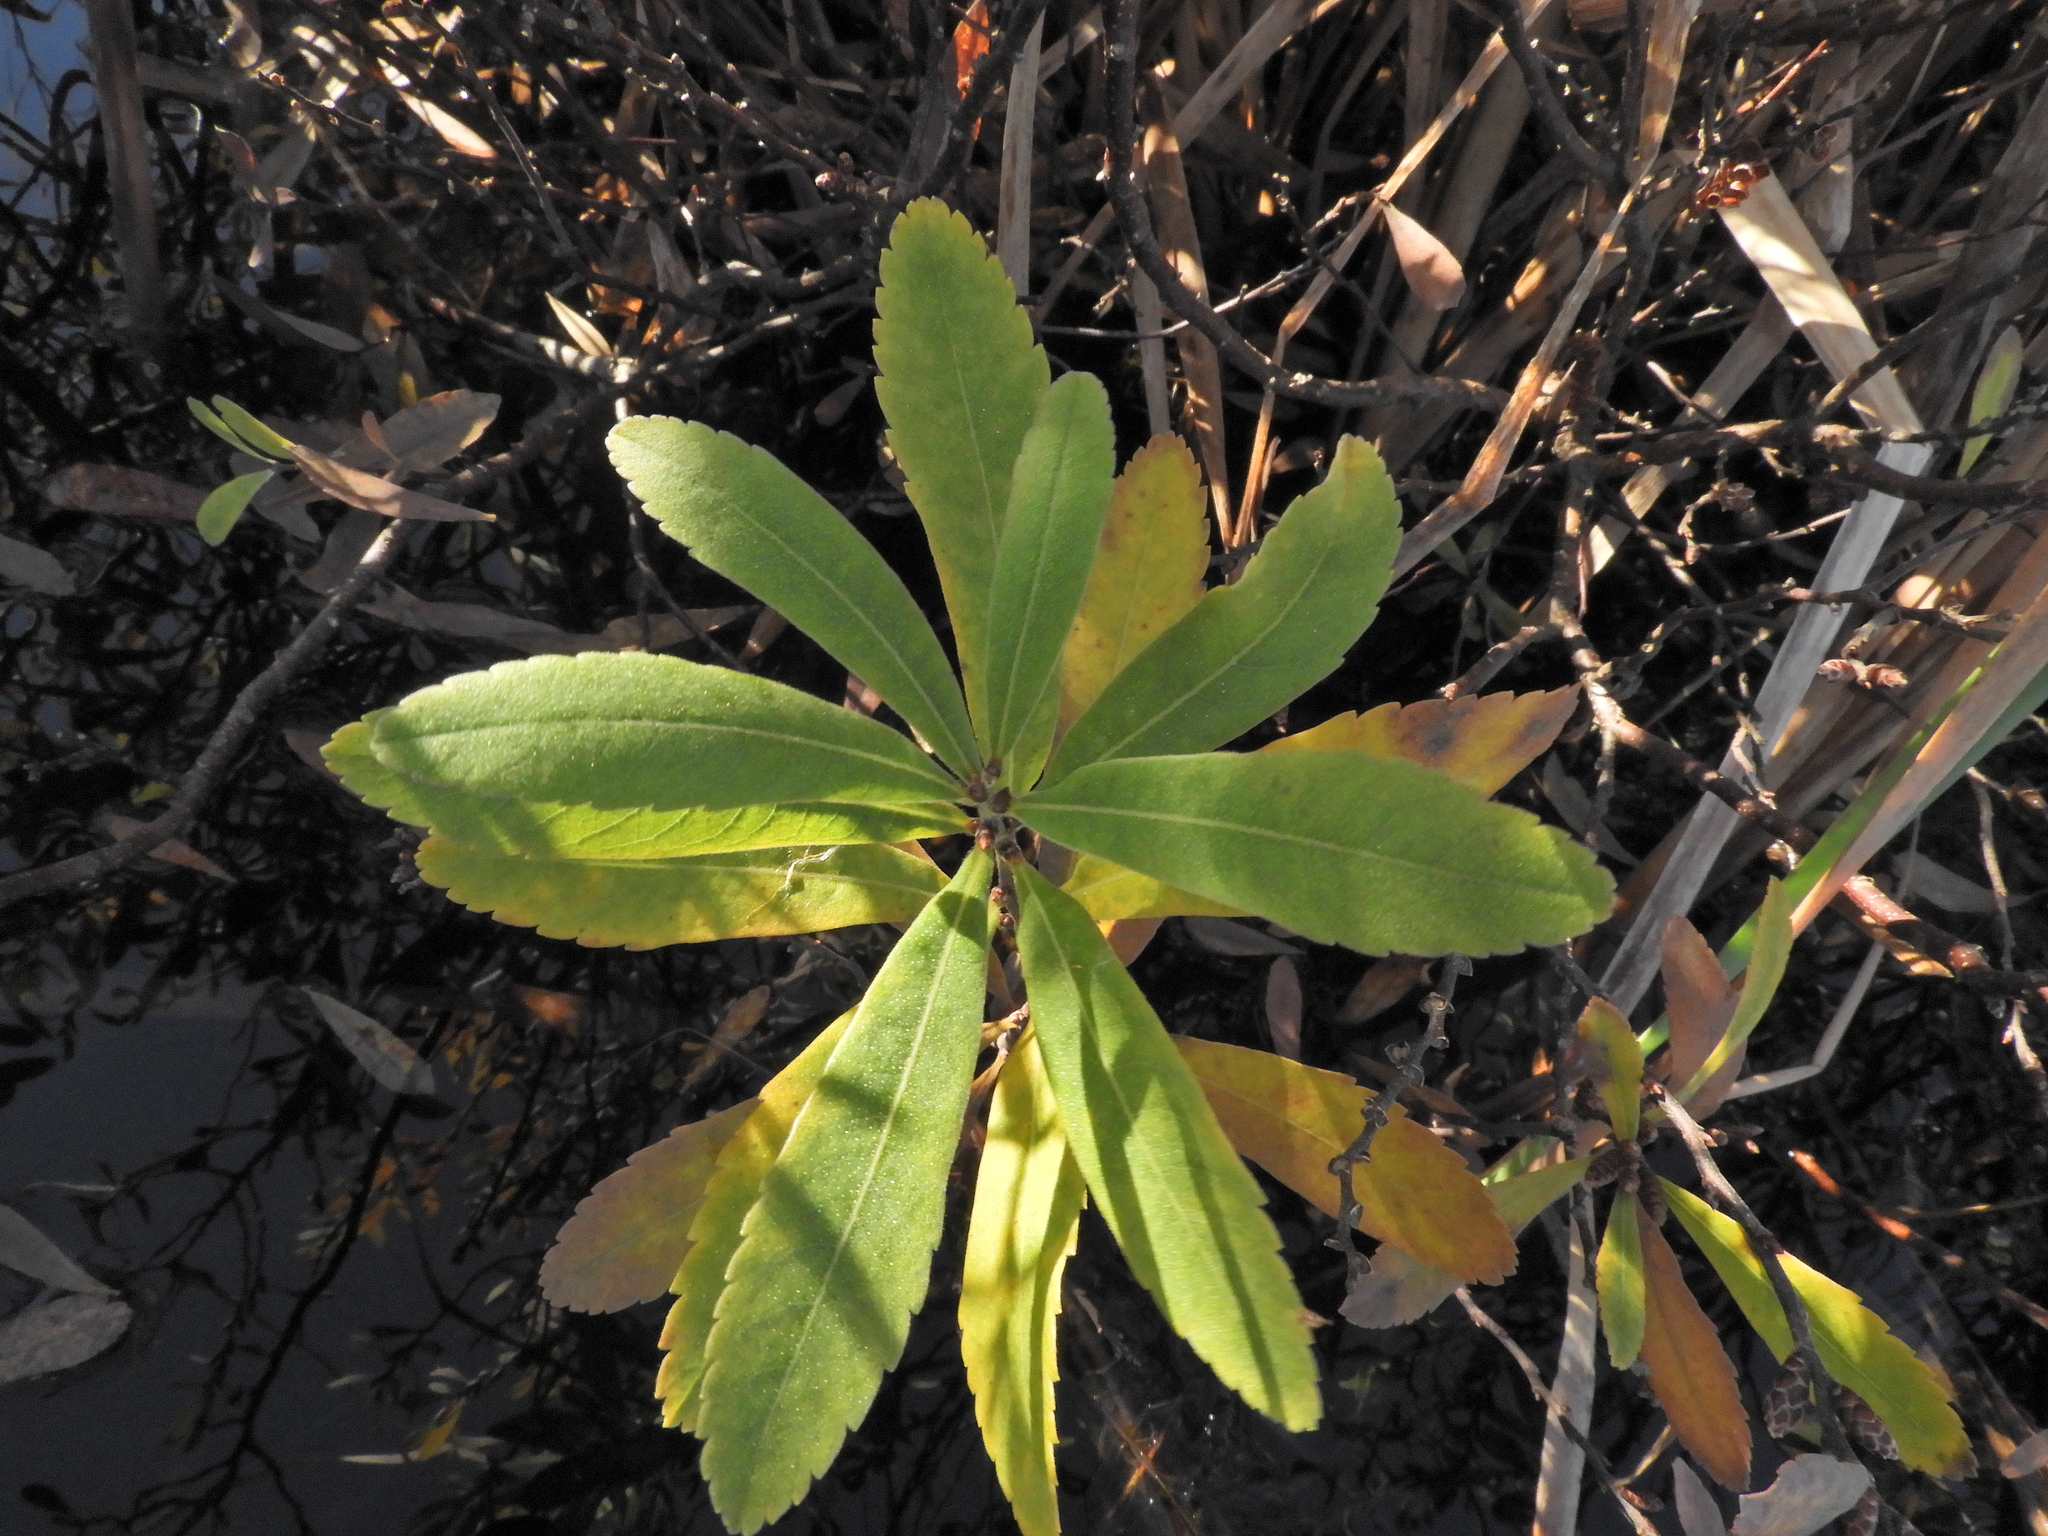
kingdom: Plantae
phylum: Tracheophyta
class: Magnoliopsida
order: Fagales
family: Myricaceae
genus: Myrica
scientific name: Myrica gale
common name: Sweet gale
